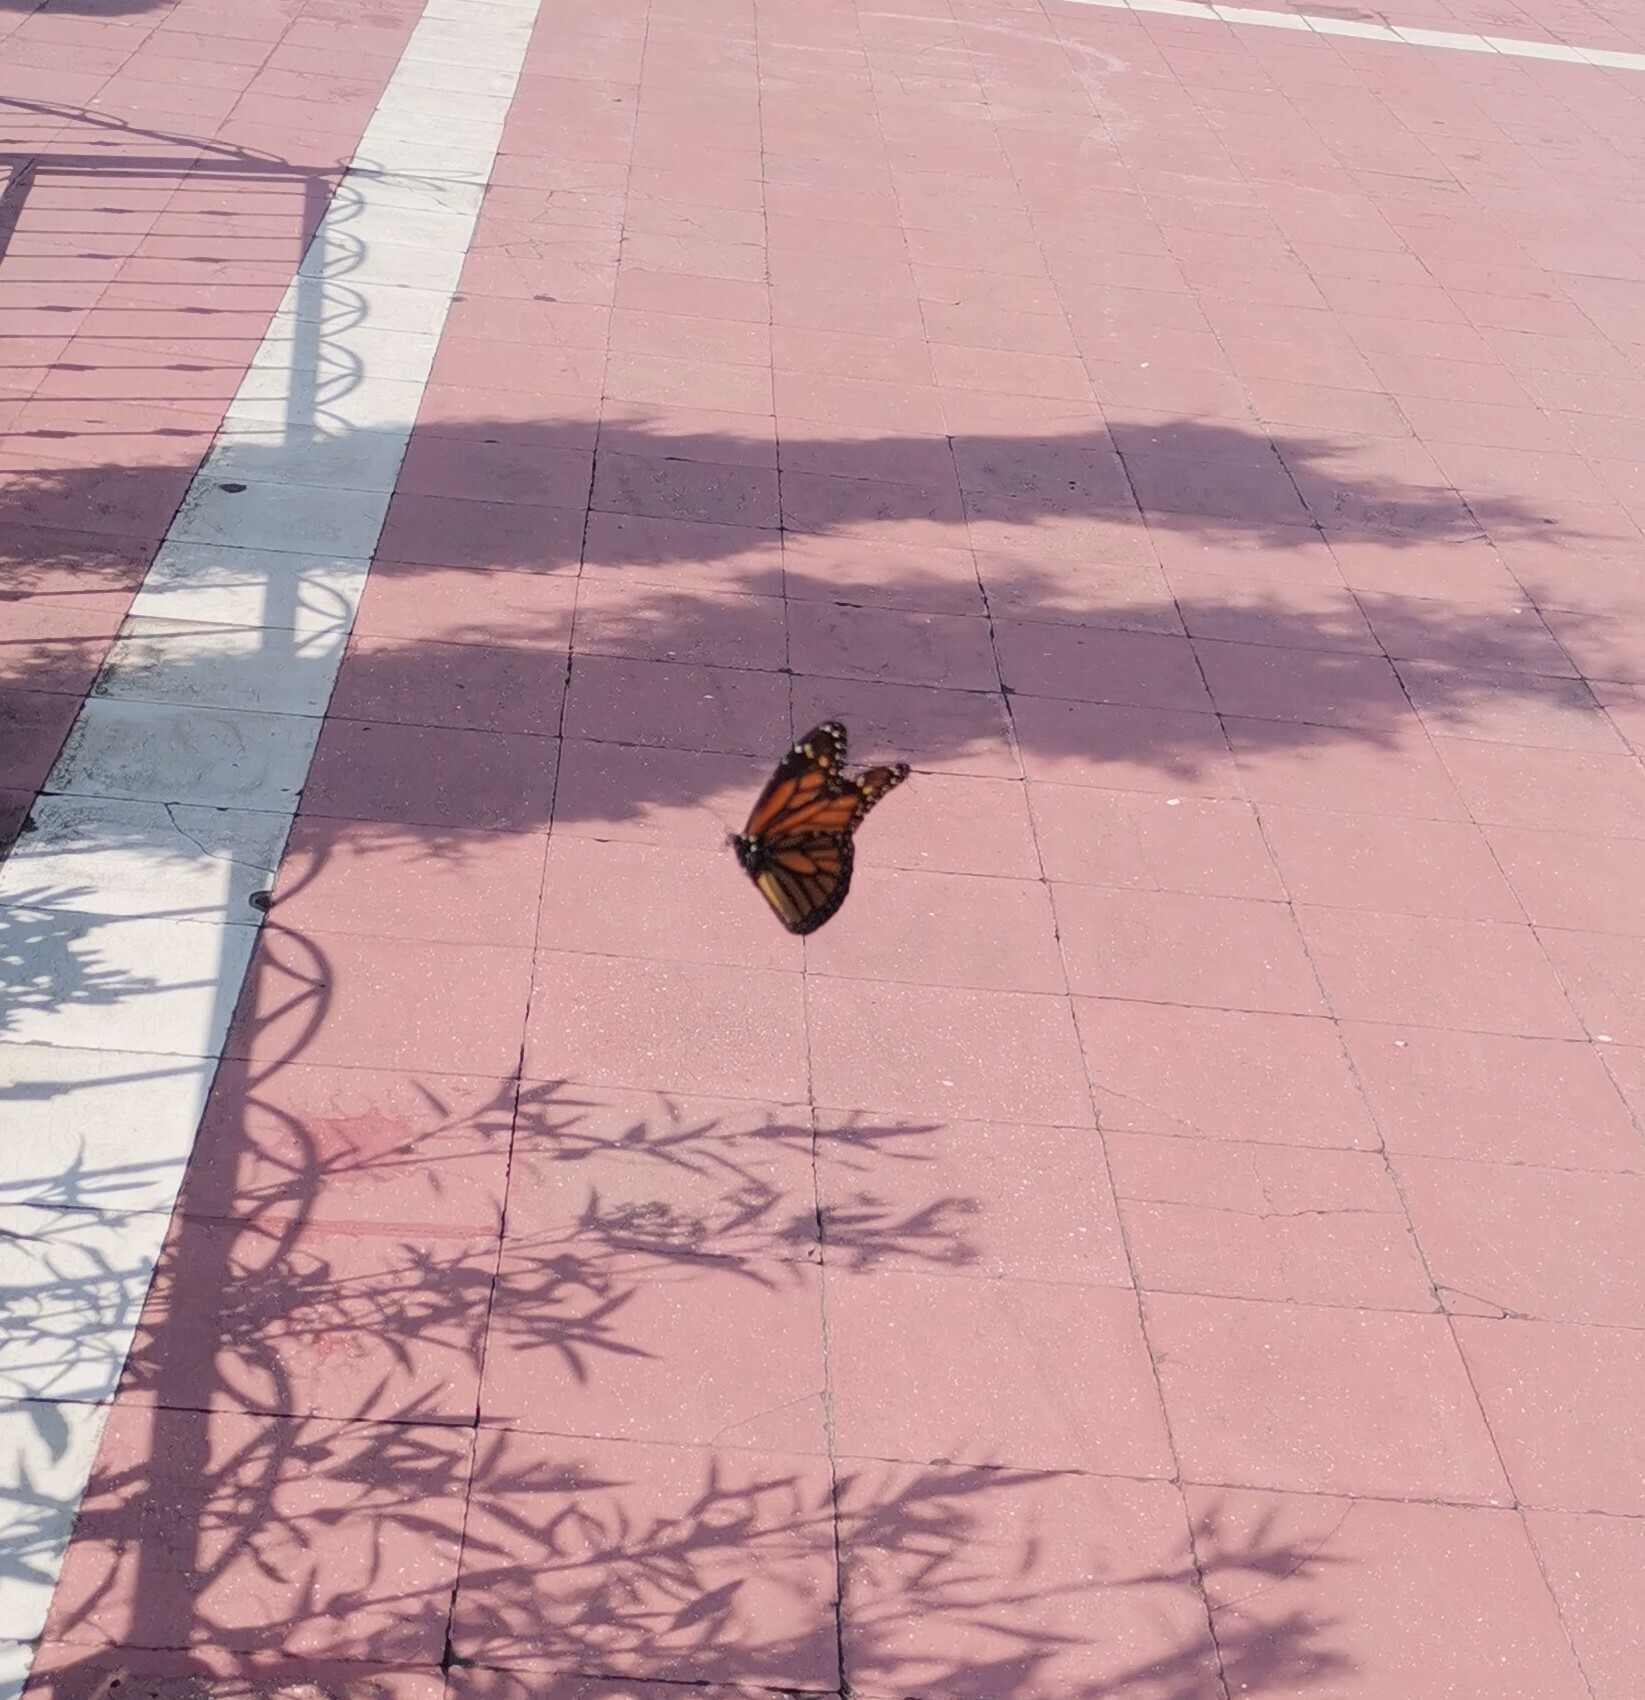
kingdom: Animalia
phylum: Arthropoda
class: Insecta
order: Lepidoptera
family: Nymphalidae
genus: Danaus
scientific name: Danaus plexippus
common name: Monarch
